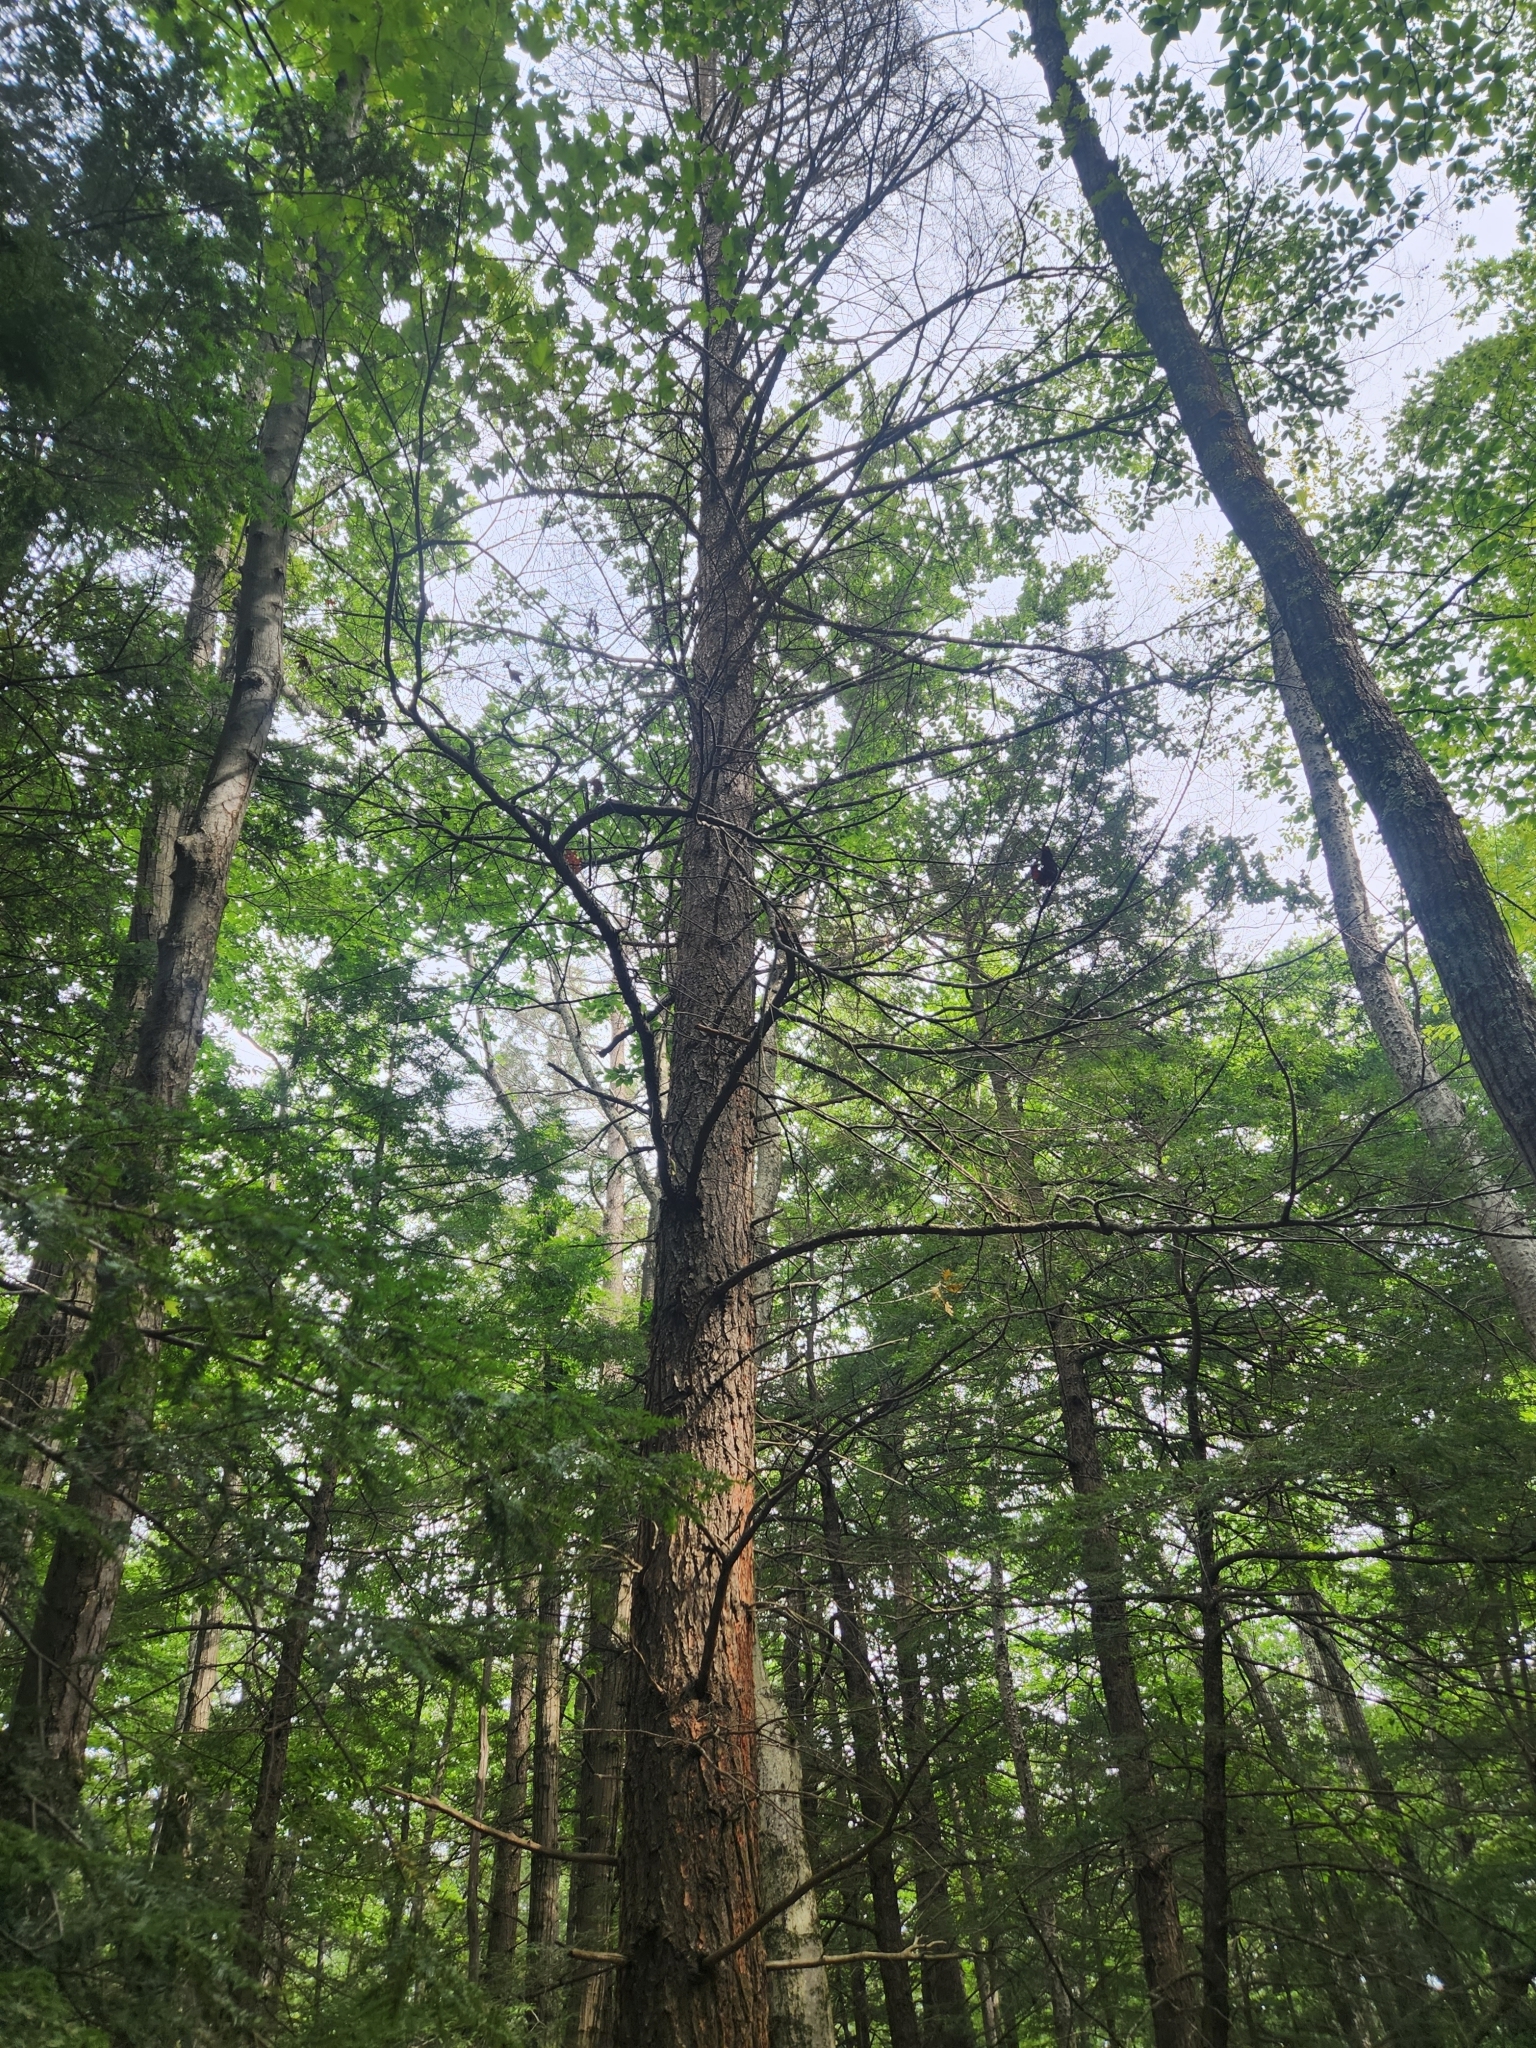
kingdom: Plantae
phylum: Tracheophyta
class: Pinopsida
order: Pinales
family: Pinaceae
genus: Tsuga
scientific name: Tsuga canadensis
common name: Eastern hemlock
